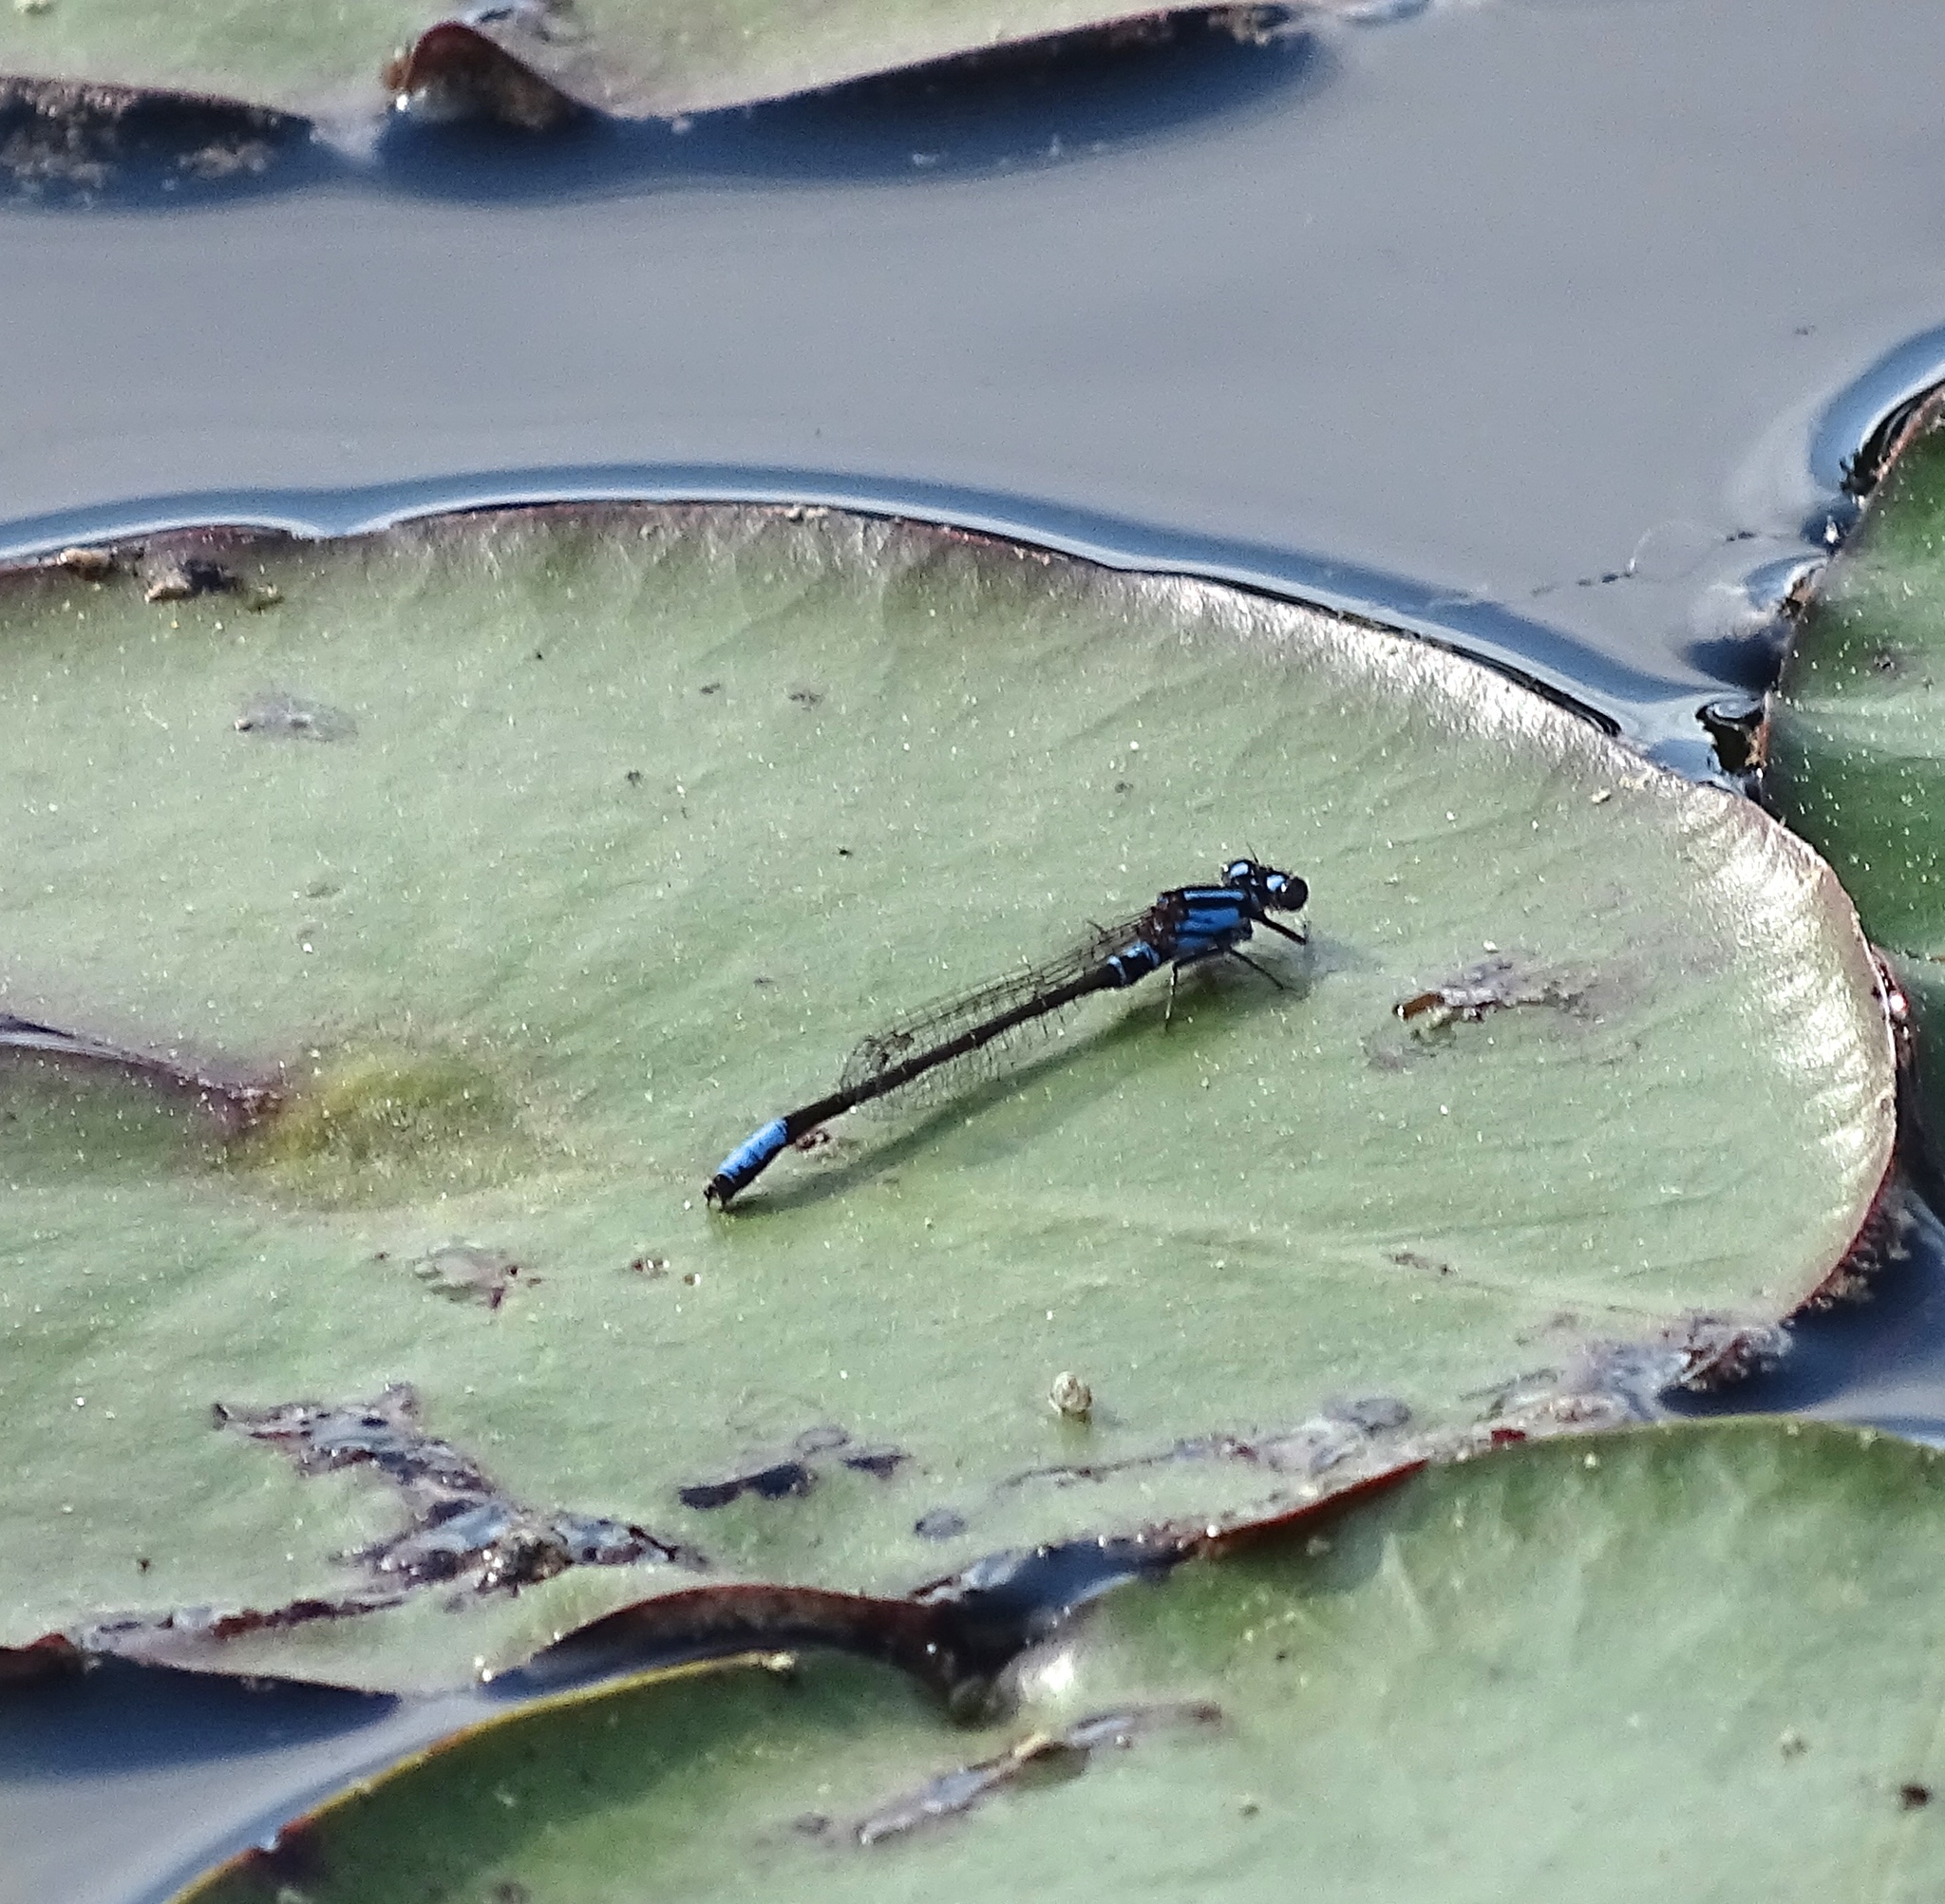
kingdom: Animalia
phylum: Arthropoda
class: Insecta
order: Odonata
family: Coenagrionidae
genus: Ischnura
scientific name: Ischnura kellicotti
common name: Lilypad forktail
